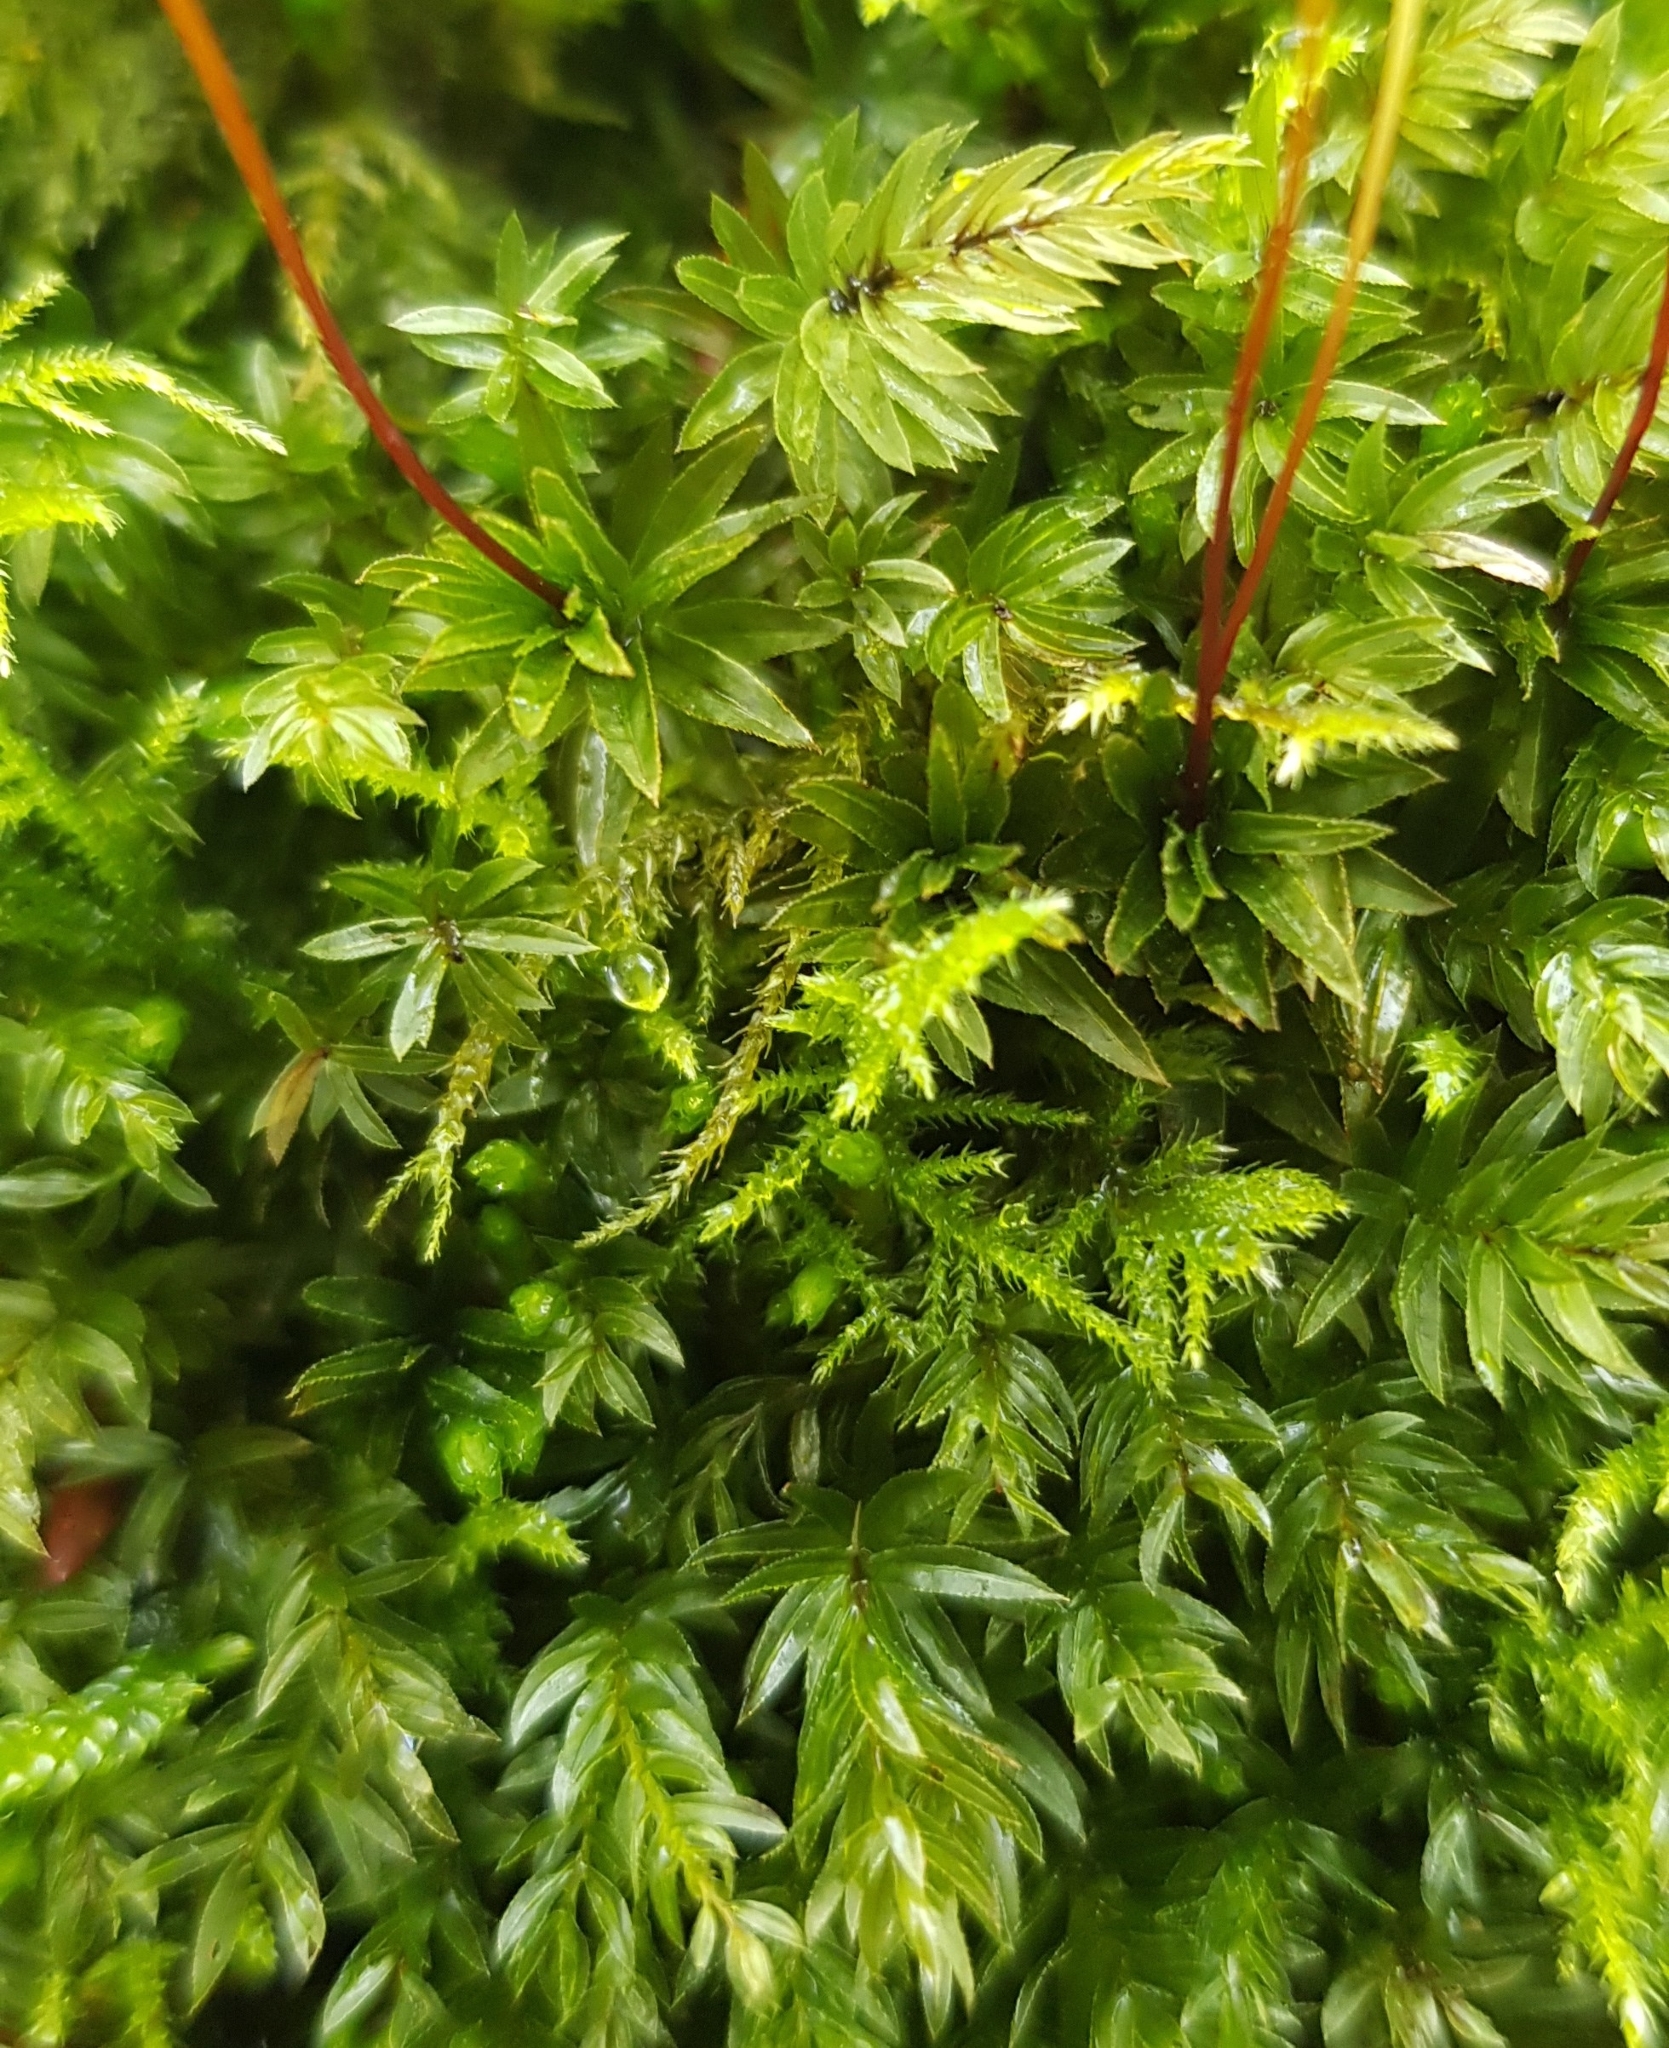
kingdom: Plantae
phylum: Bryophyta
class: Bryopsida
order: Bryales
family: Mniaceae
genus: Mnium
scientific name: Mnium hornum
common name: Swan's-neck leafy moss
